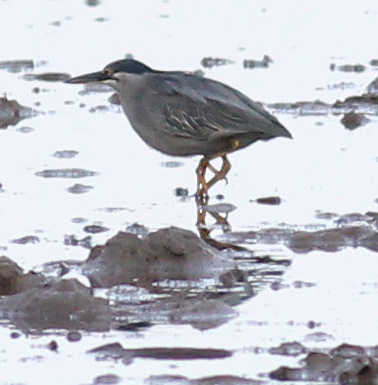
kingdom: Animalia
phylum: Chordata
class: Aves
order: Pelecaniformes
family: Ardeidae
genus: Butorides
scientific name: Butorides striata
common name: Striated heron
